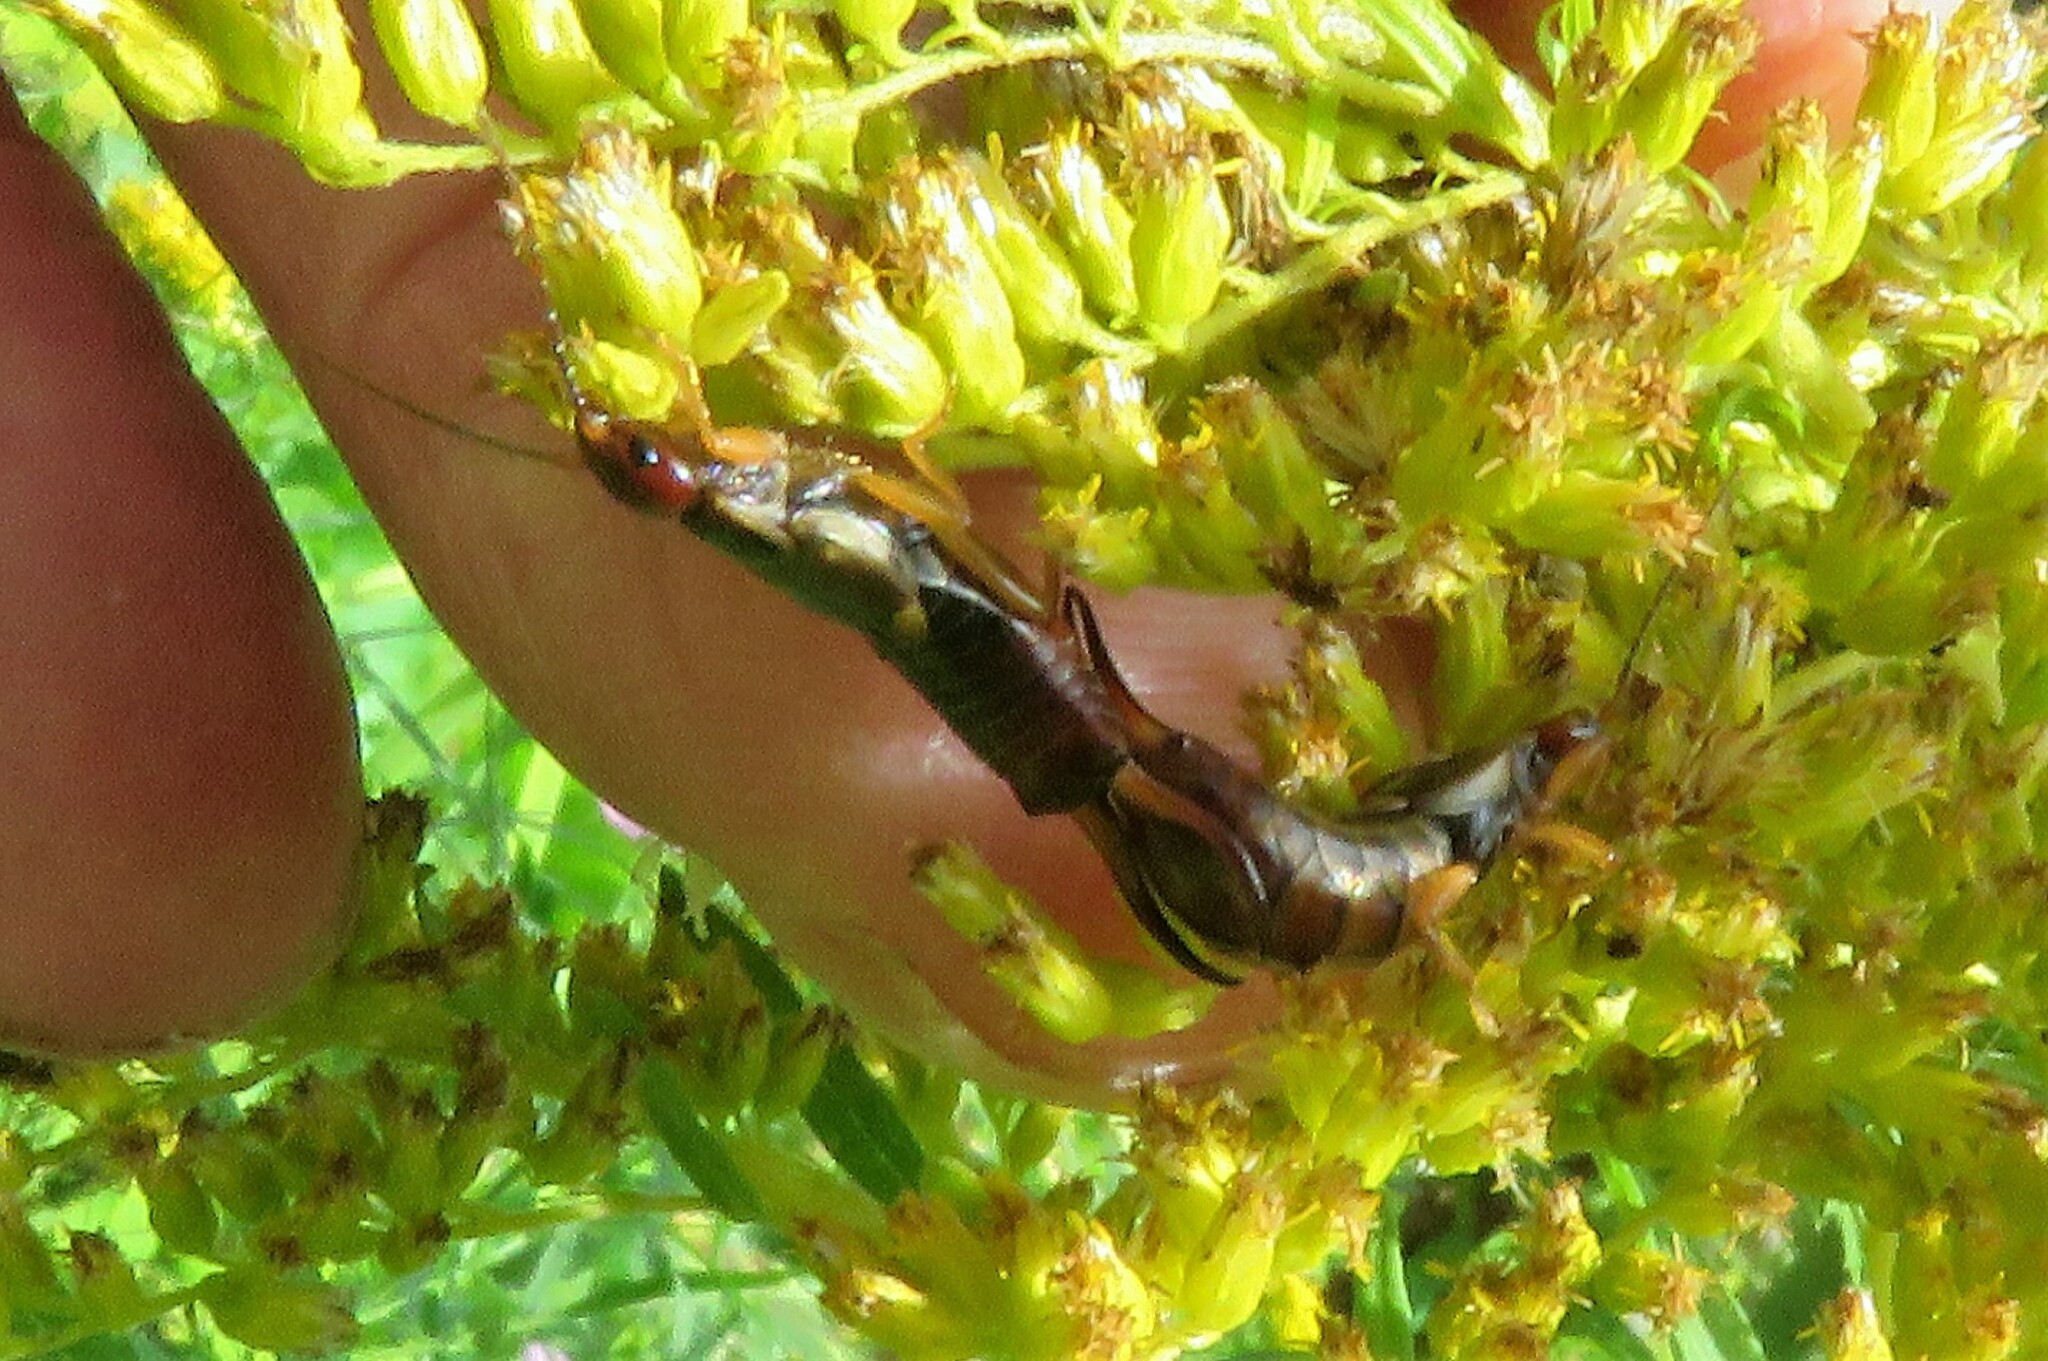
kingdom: Animalia
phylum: Arthropoda
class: Insecta
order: Dermaptera
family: Forficulidae
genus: Forficula
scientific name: Forficula
